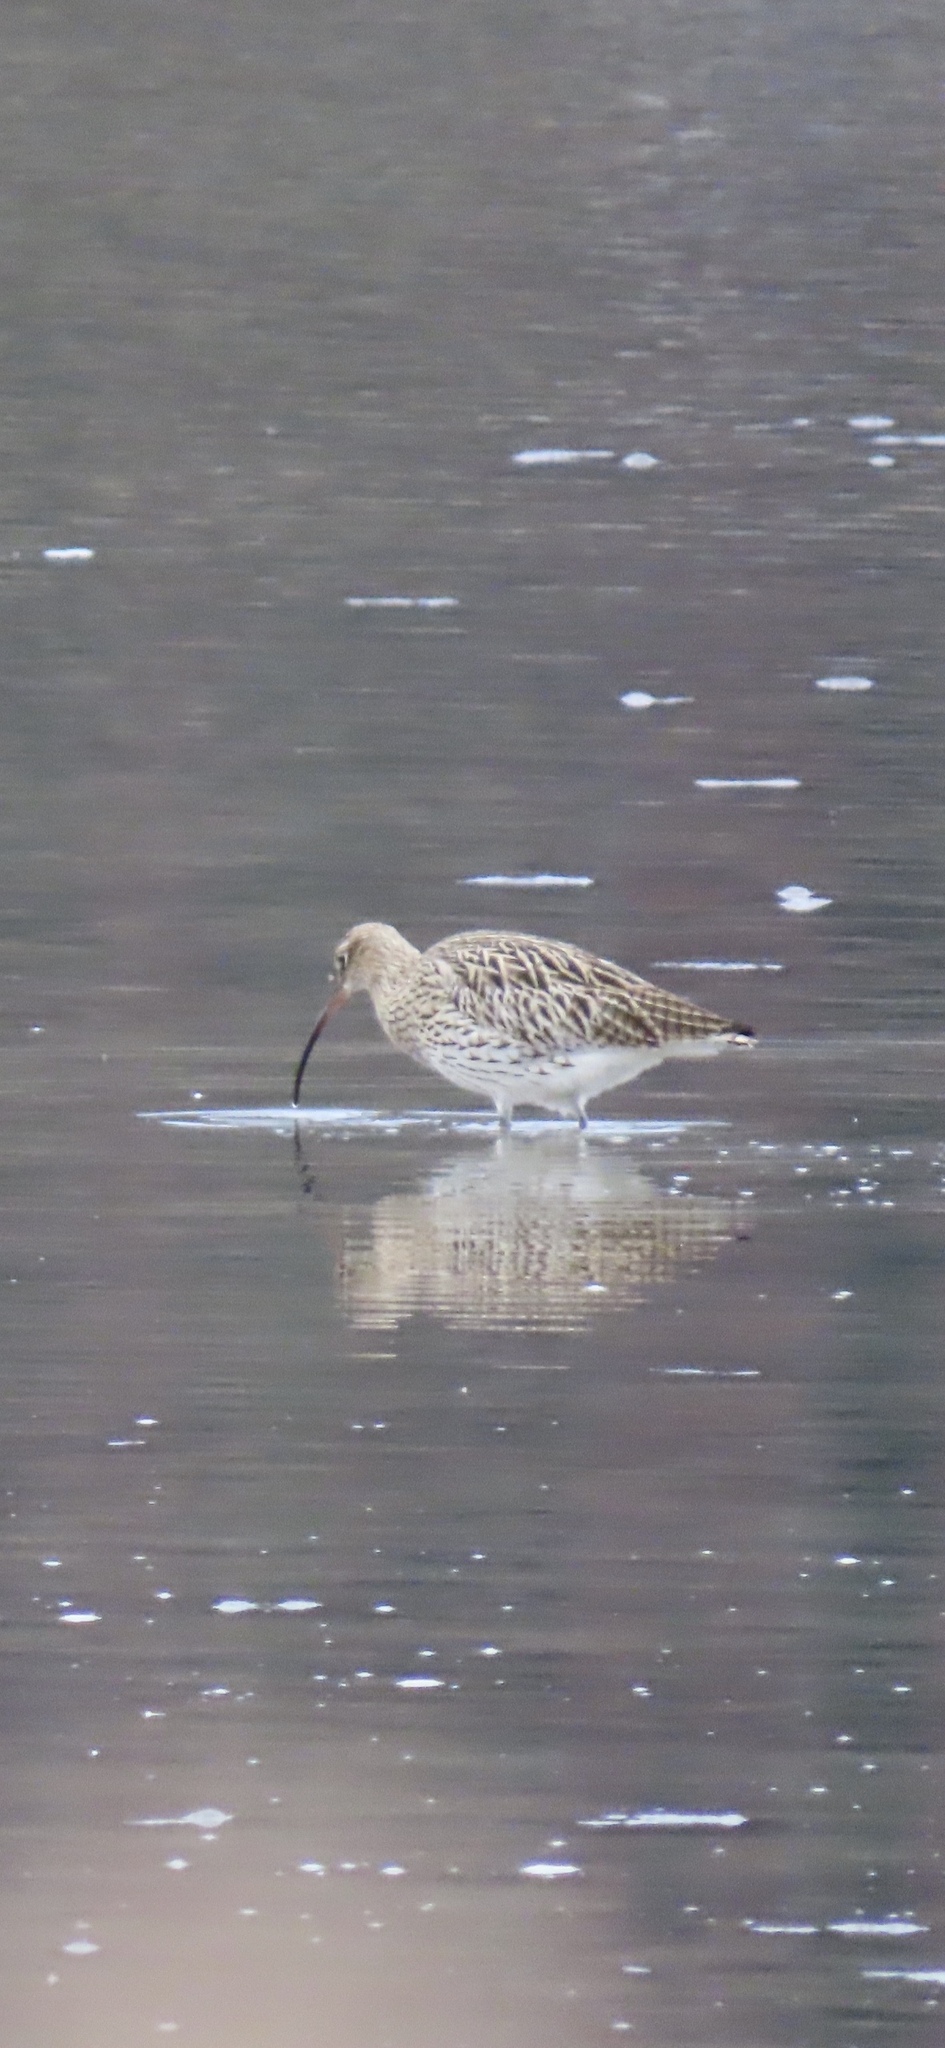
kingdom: Animalia
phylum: Chordata
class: Aves
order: Charadriiformes
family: Scolopacidae
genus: Numenius
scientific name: Numenius arquata
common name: Eurasian curlew
